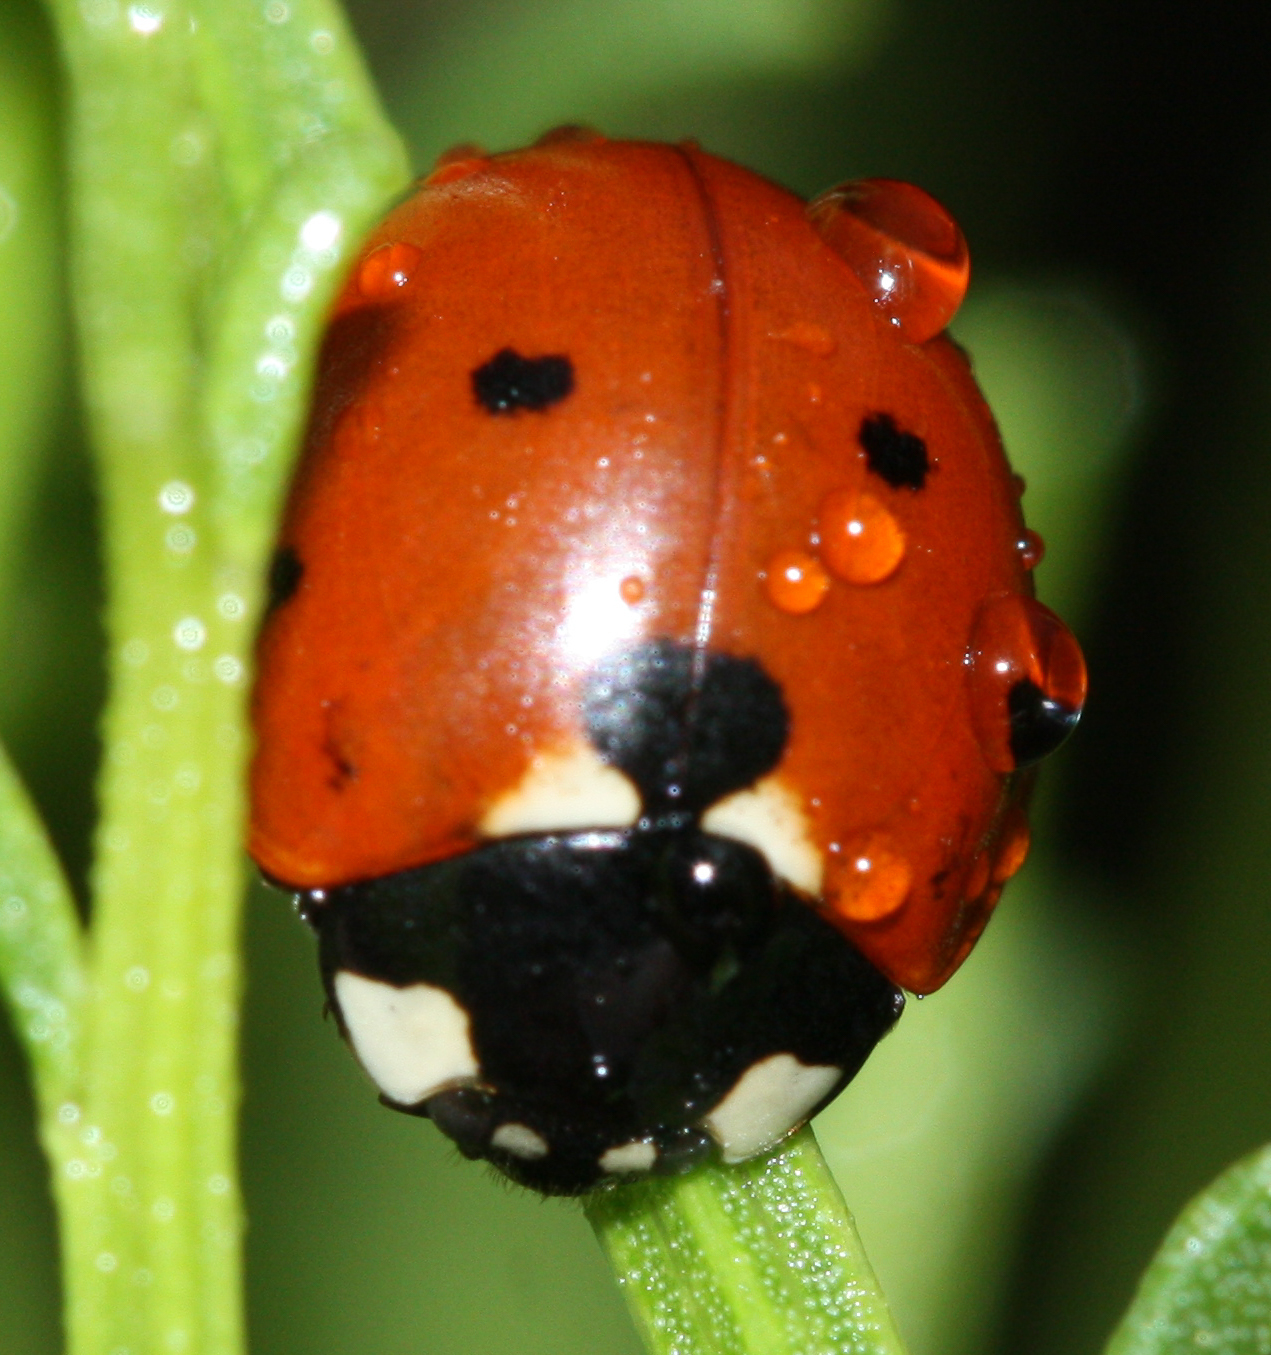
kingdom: Animalia
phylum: Arthropoda
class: Insecta
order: Coleoptera
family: Coccinellidae
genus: Coccinella
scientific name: Coccinella septempunctata
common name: Sevenspotted lady beetle
